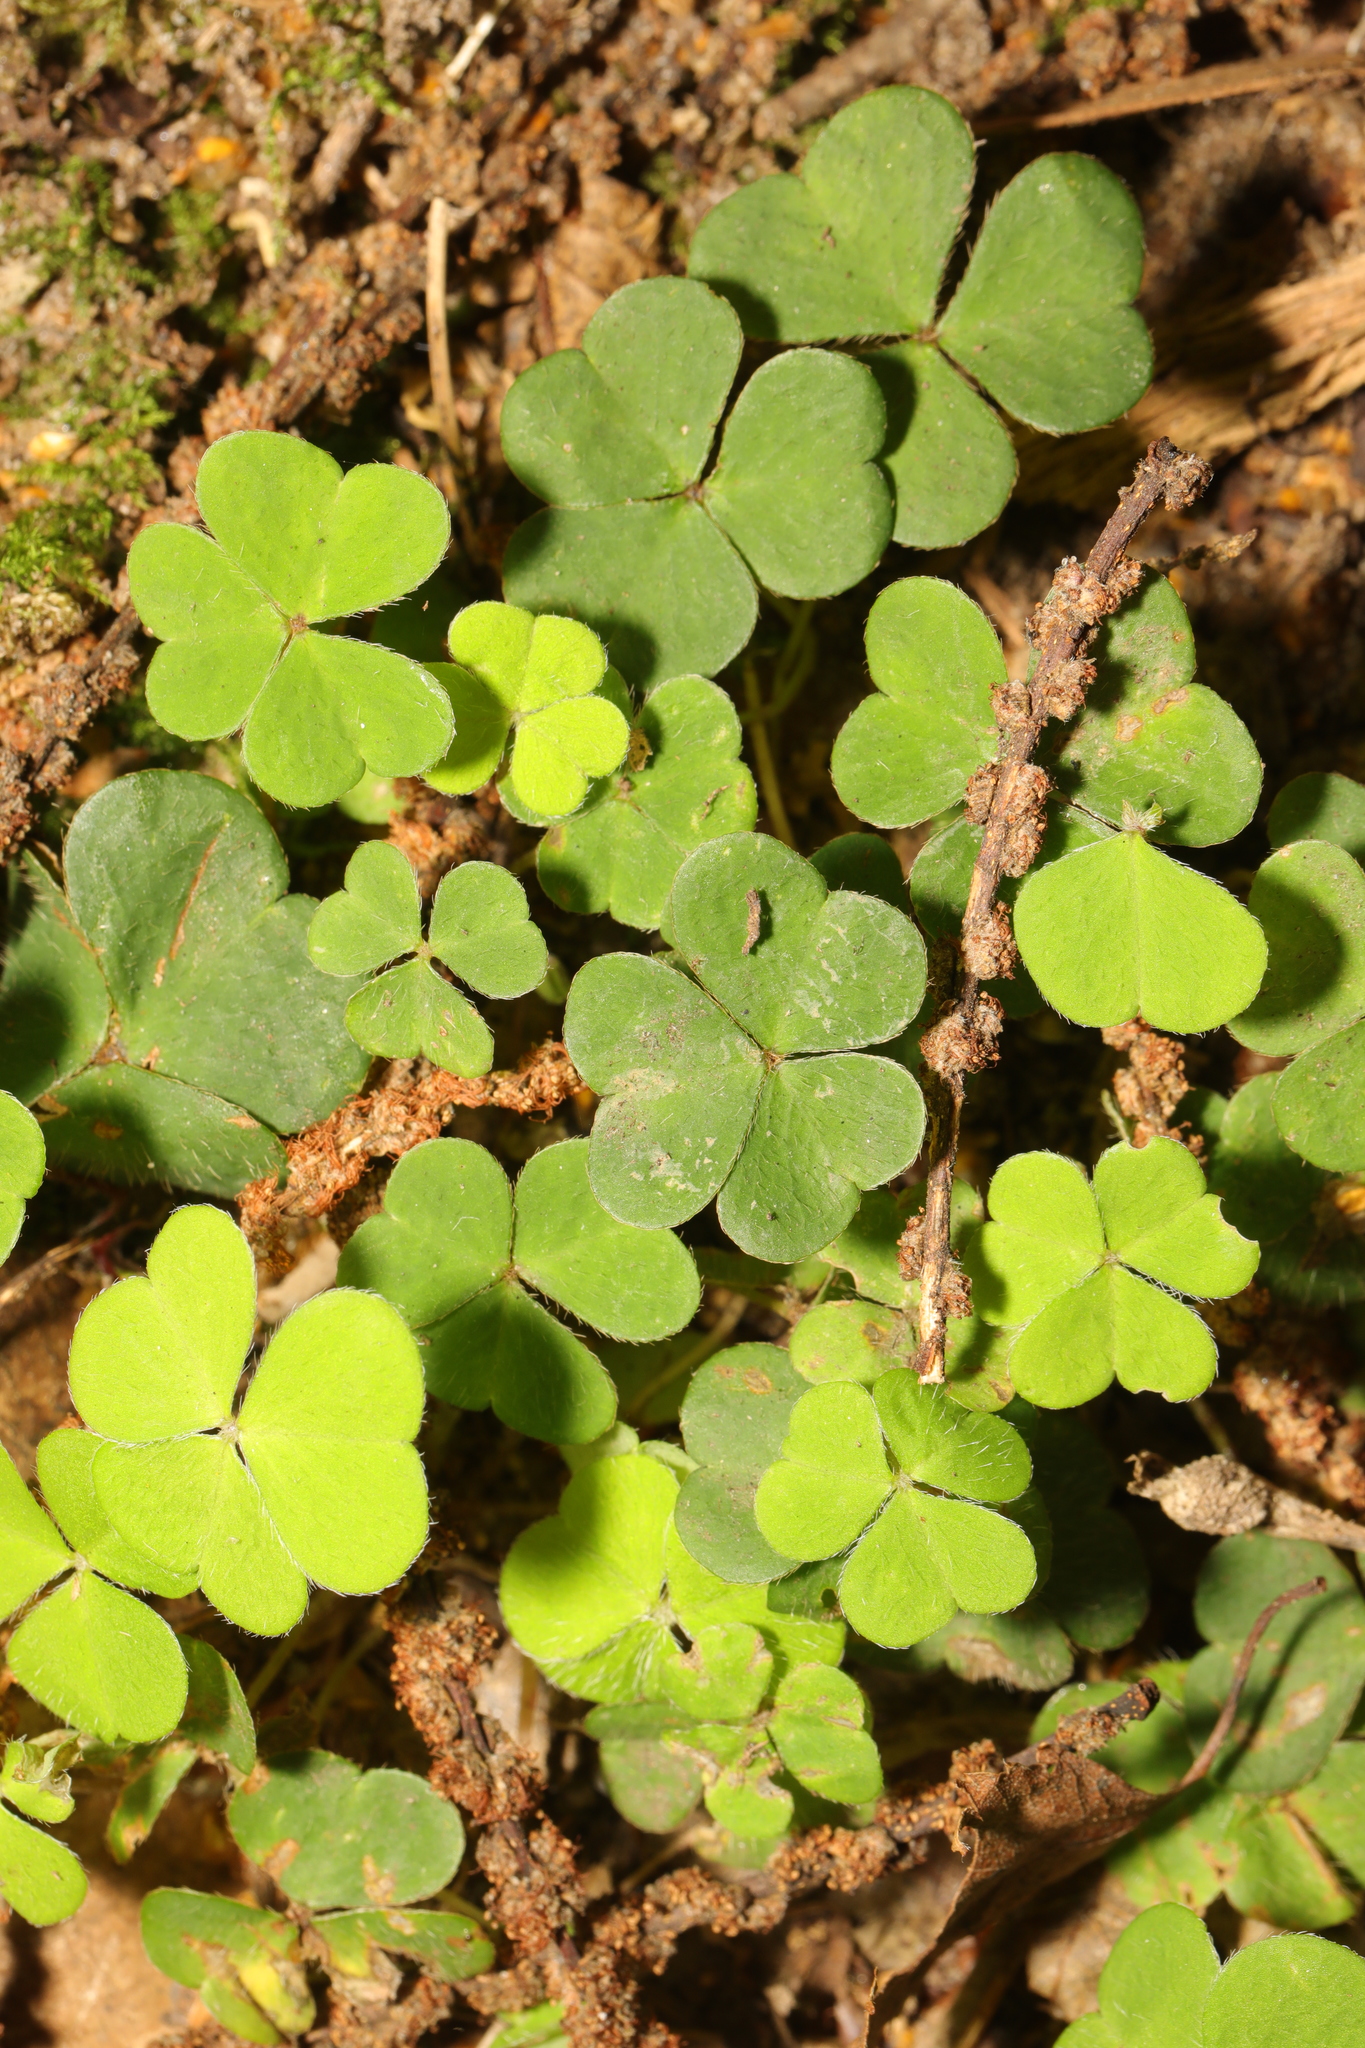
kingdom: Plantae
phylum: Tracheophyta
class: Magnoliopsida
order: Oxalidales
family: Oxalidaceae
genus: Oxalis
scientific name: Oxalis acetosella
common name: Wood-sorrel
